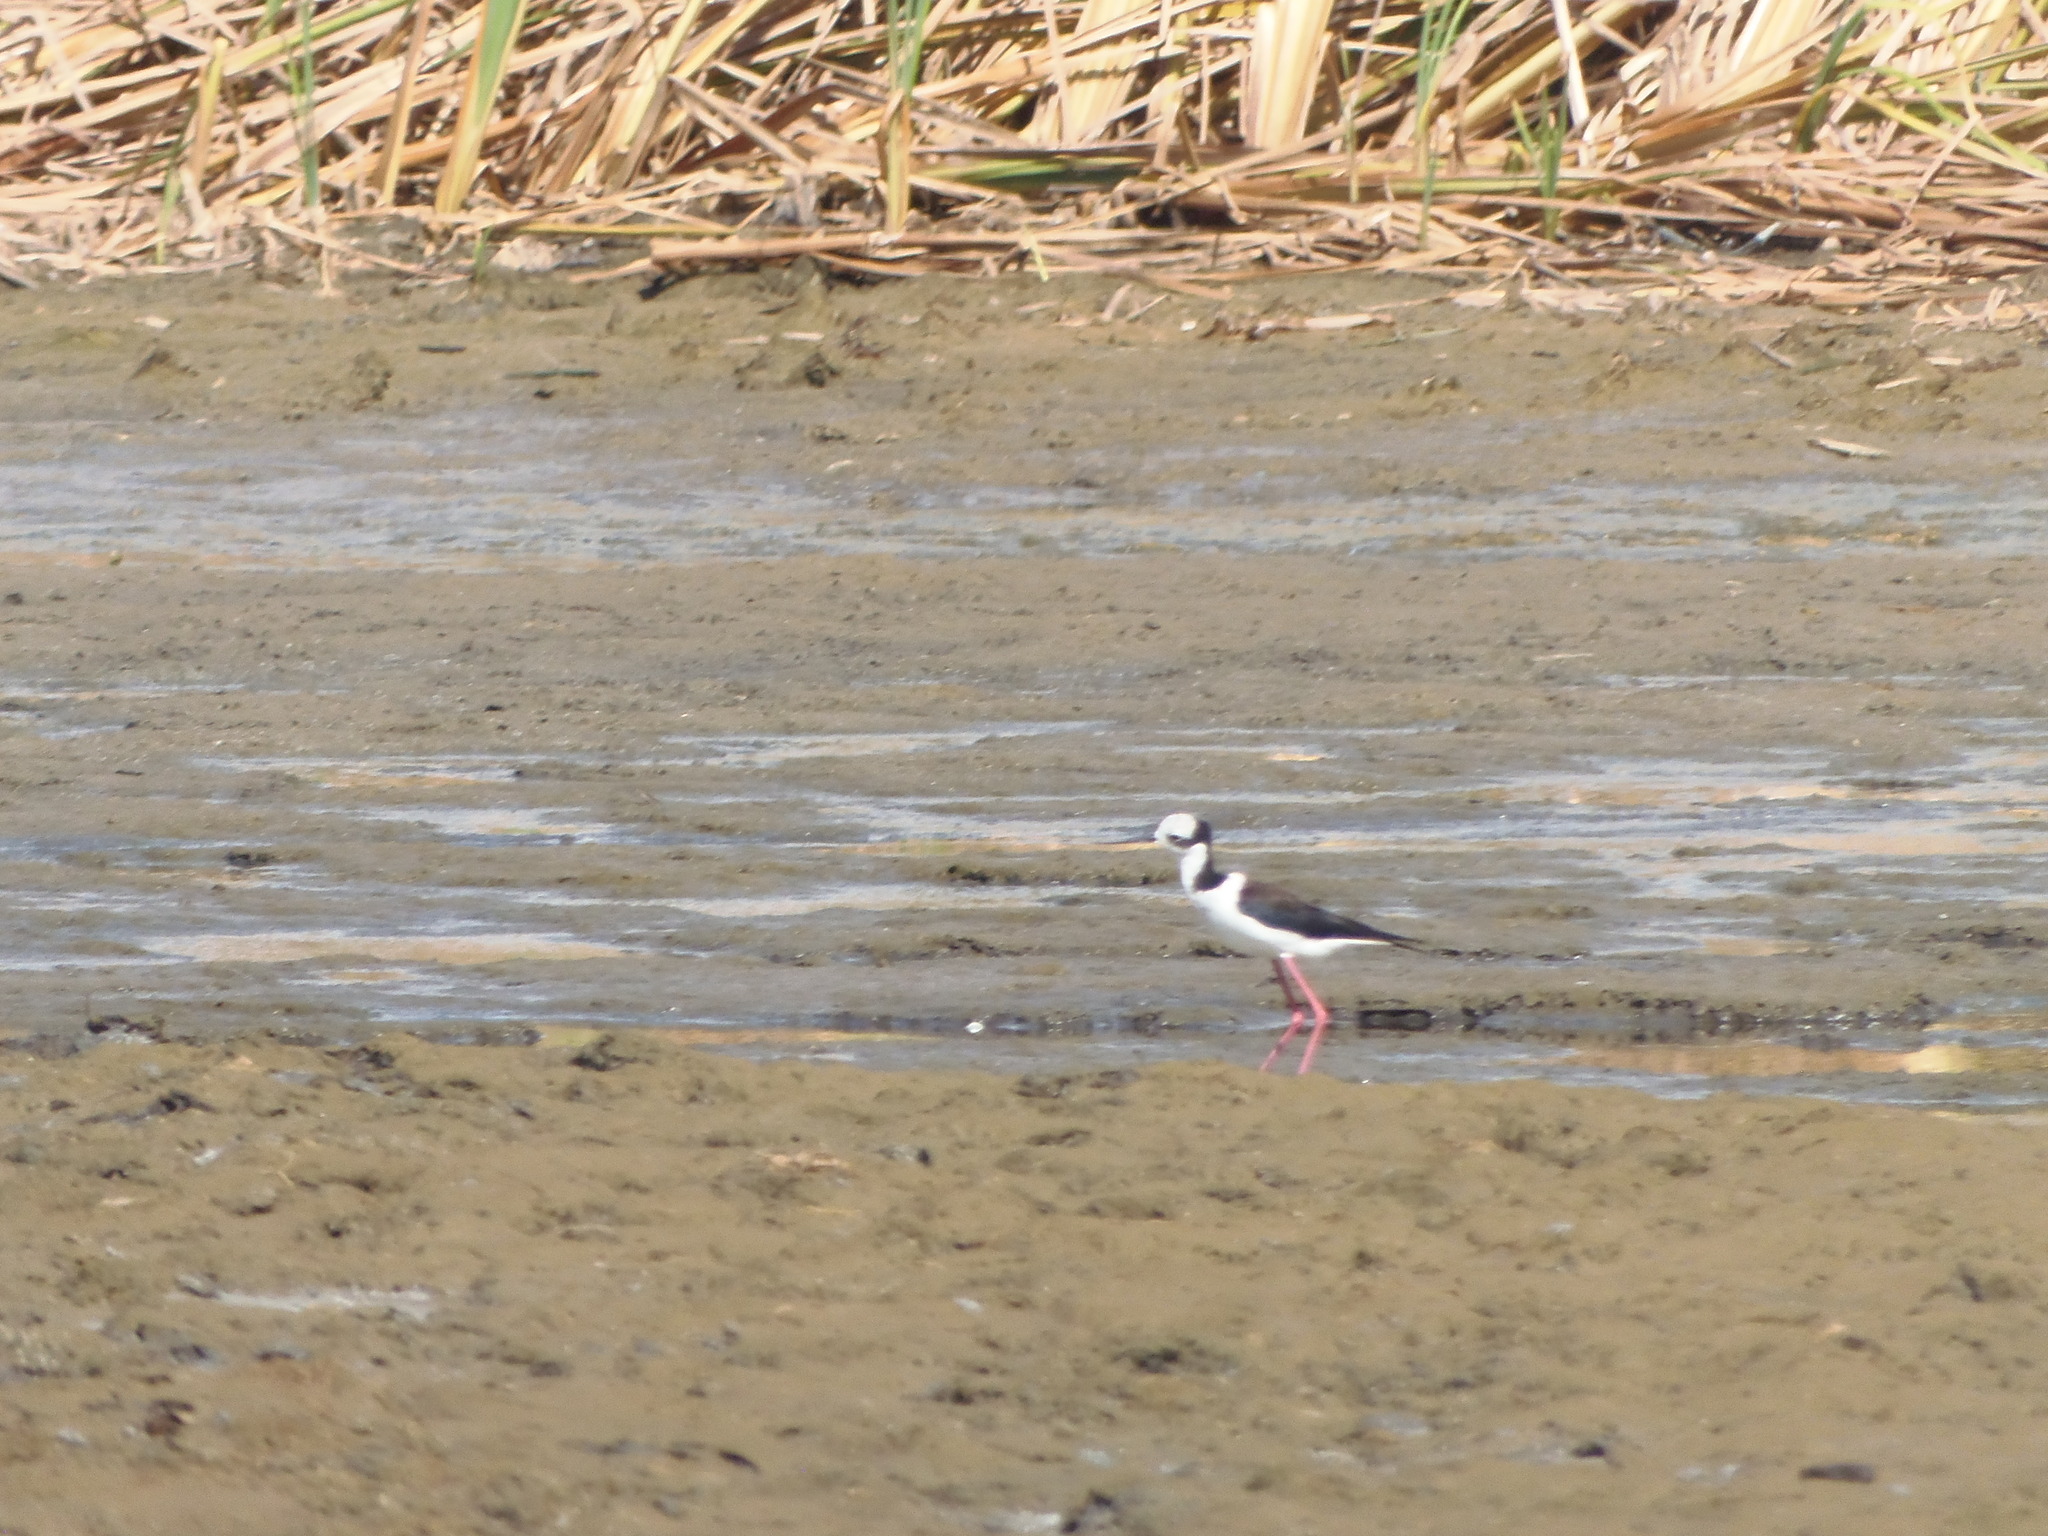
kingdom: Animalia
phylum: Chordata
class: Aves
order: Charadriiformes
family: Recurvirostridae
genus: Himantopus
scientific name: Himantopus mexicanus
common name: Black-necked stilt
